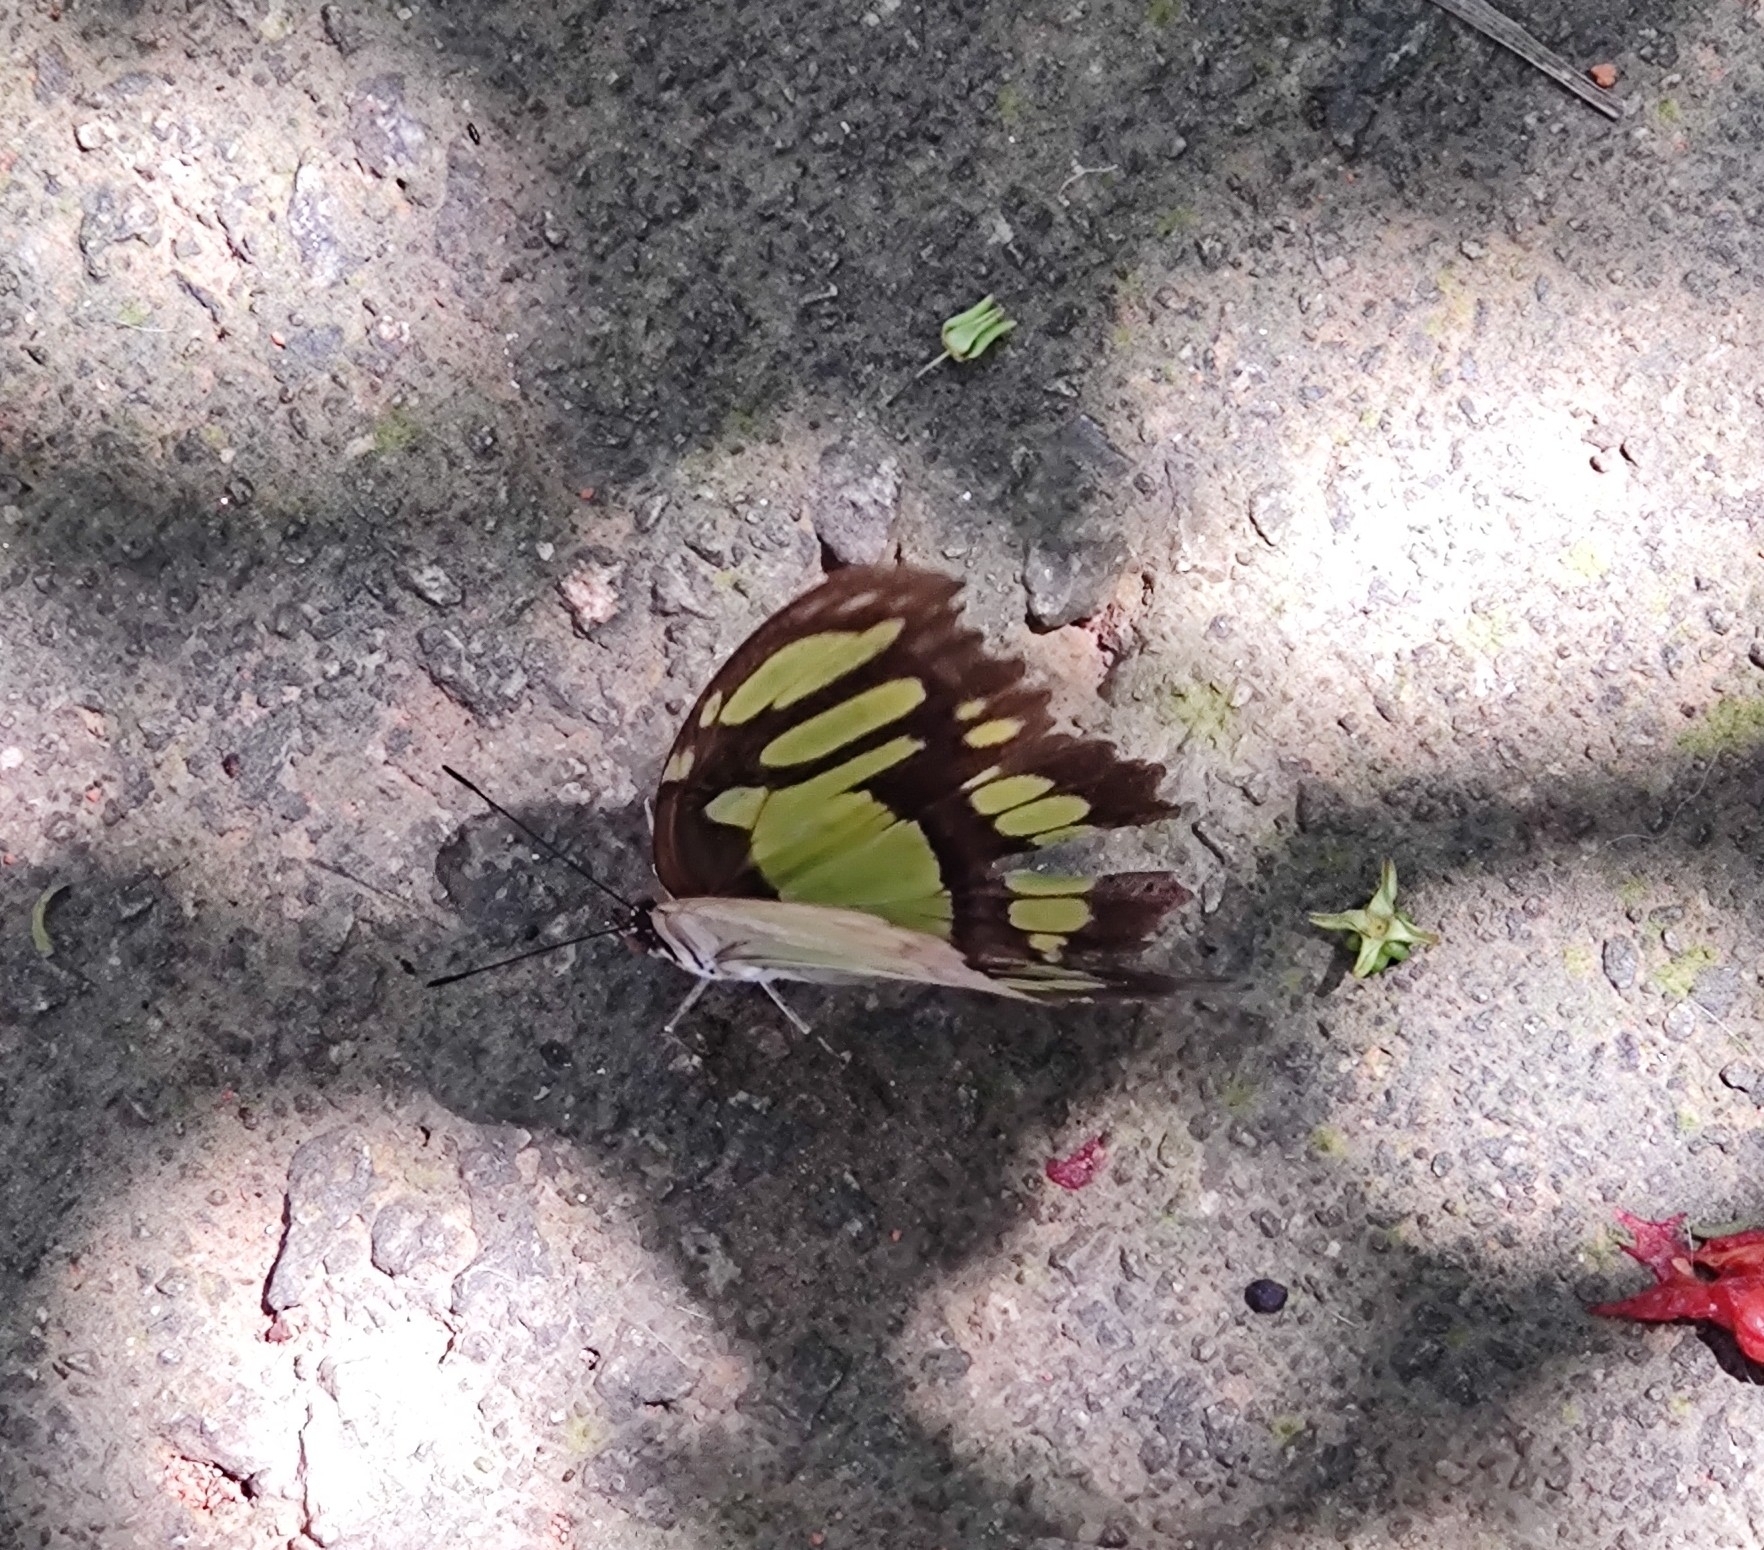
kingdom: Animalia
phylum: Arthropoda
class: Insecta
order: Lepidoptera
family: Nymphalidae
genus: Siproeta
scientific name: Siproeta stelenes
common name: Malachite
